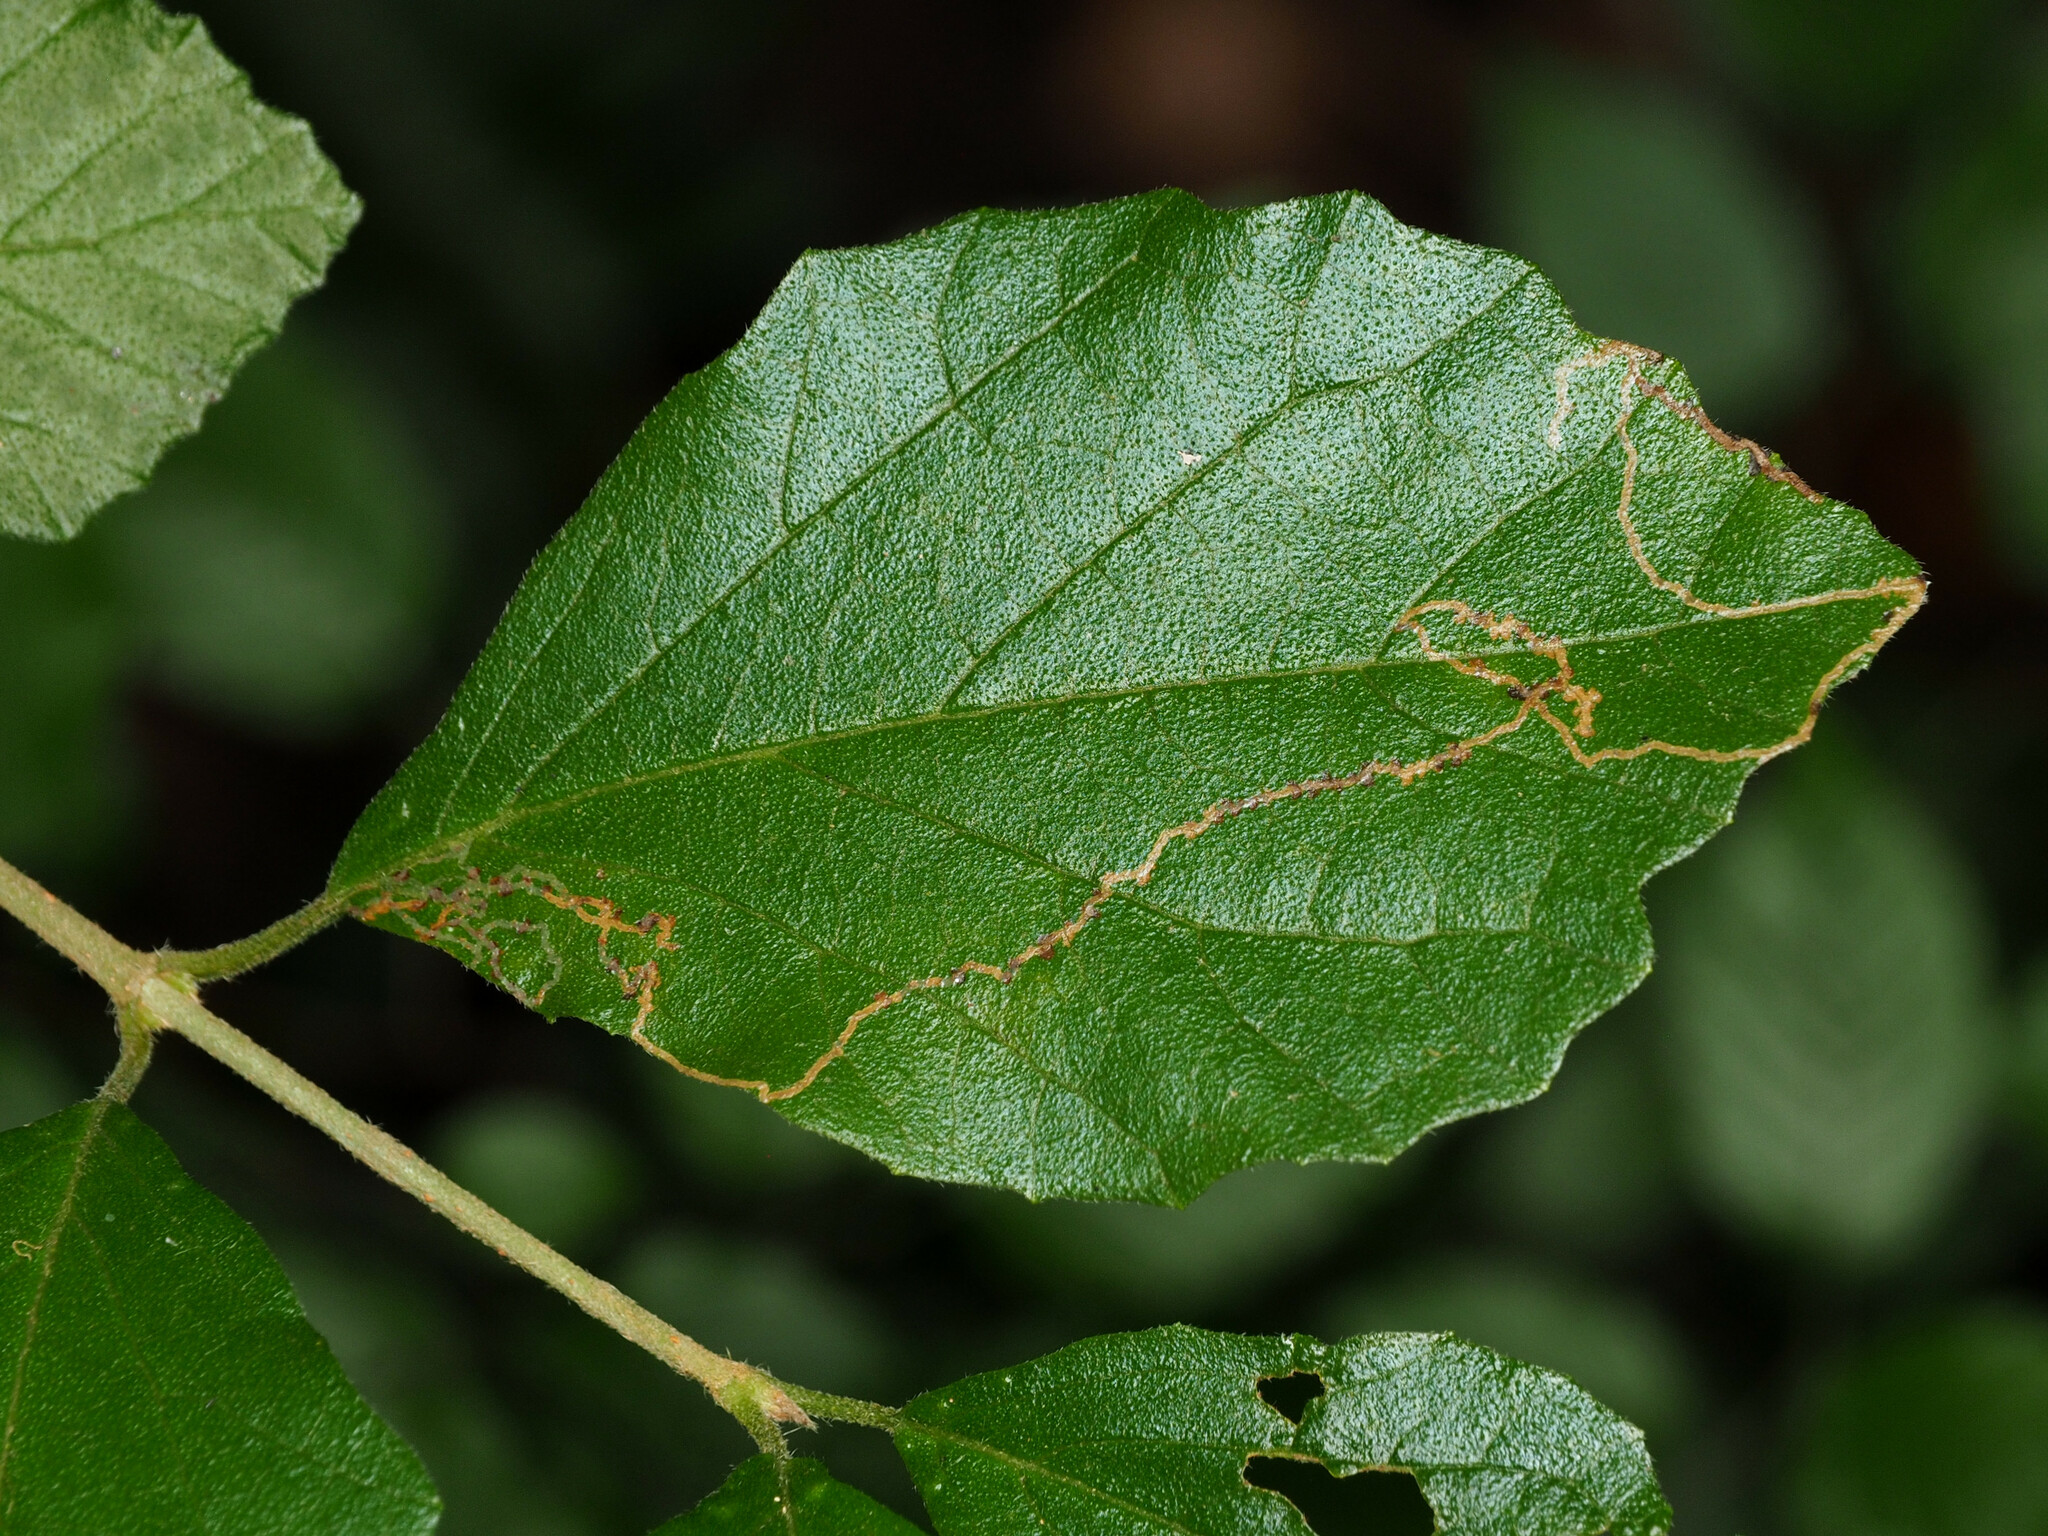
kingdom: Animalia
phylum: Arthropoda
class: Insecta
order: Lepidoptera
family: Gracillariidae
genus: Marmara
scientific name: Marmara viburnella
